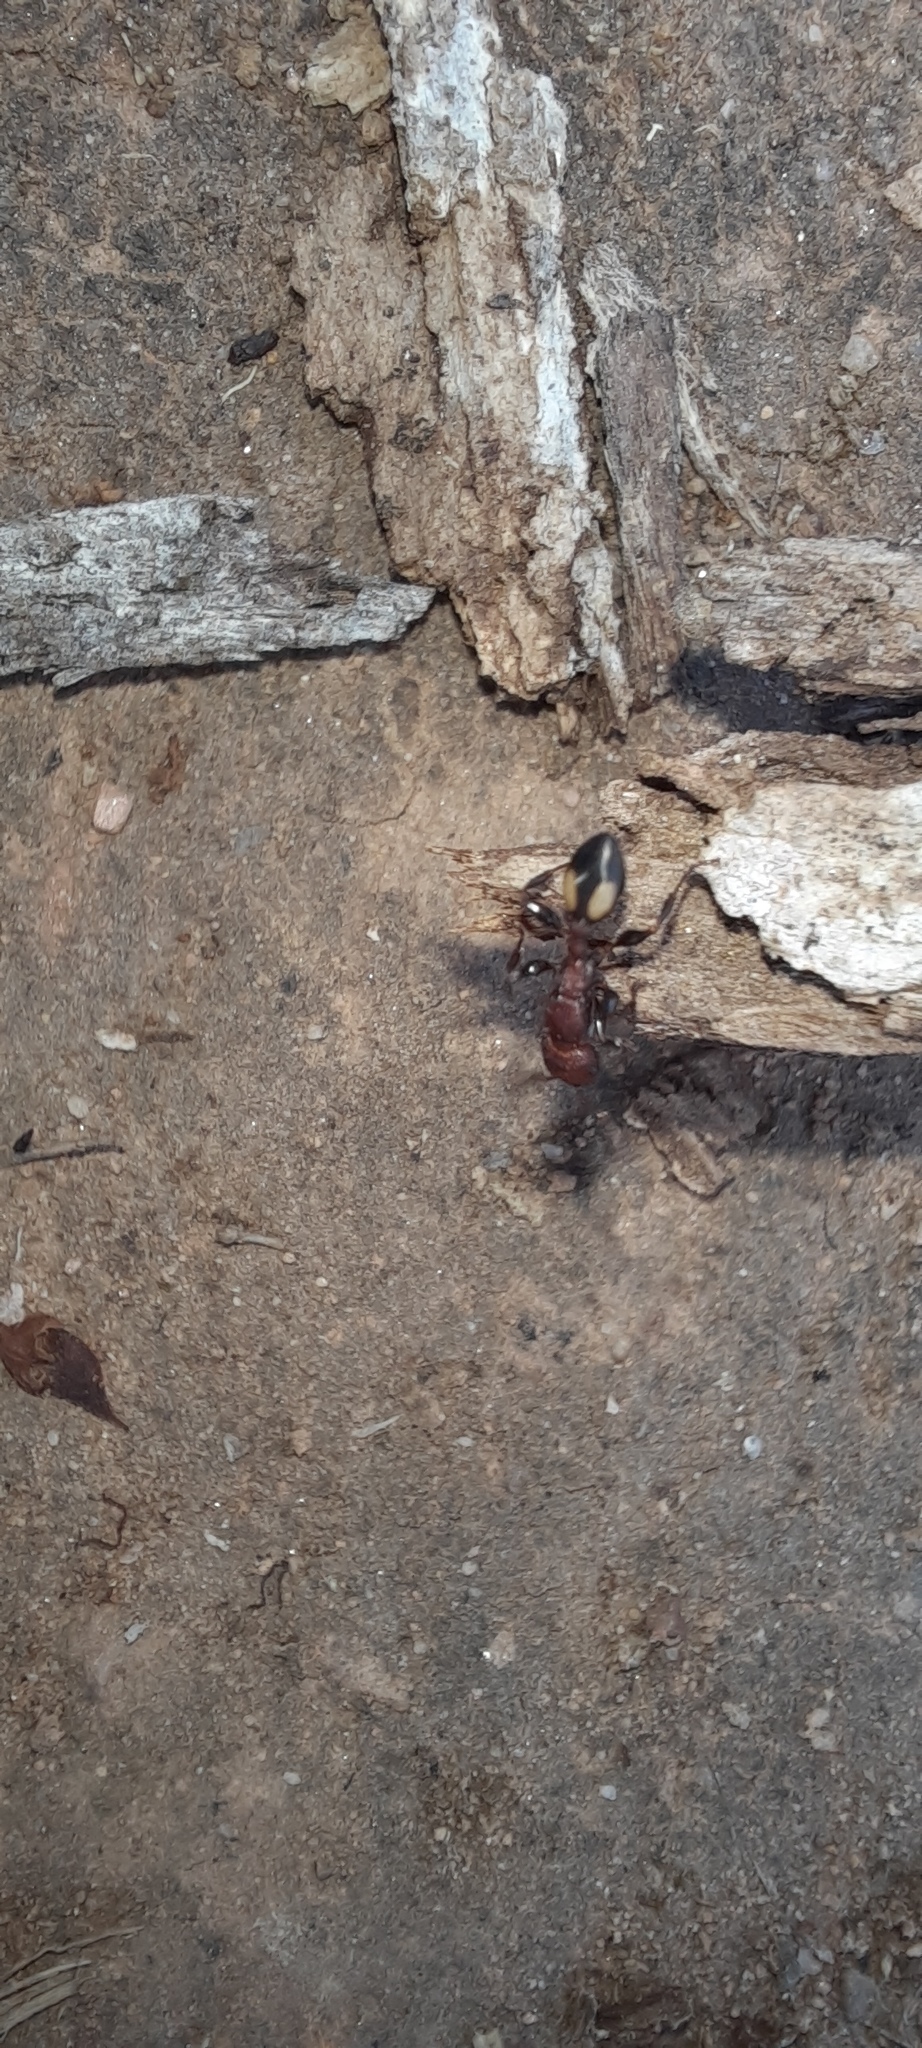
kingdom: Animalia
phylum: Arthropoda
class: Insecta
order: Hymenoptera
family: Formicidae
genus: Podomyrma
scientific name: Podomyrma adelaidae
